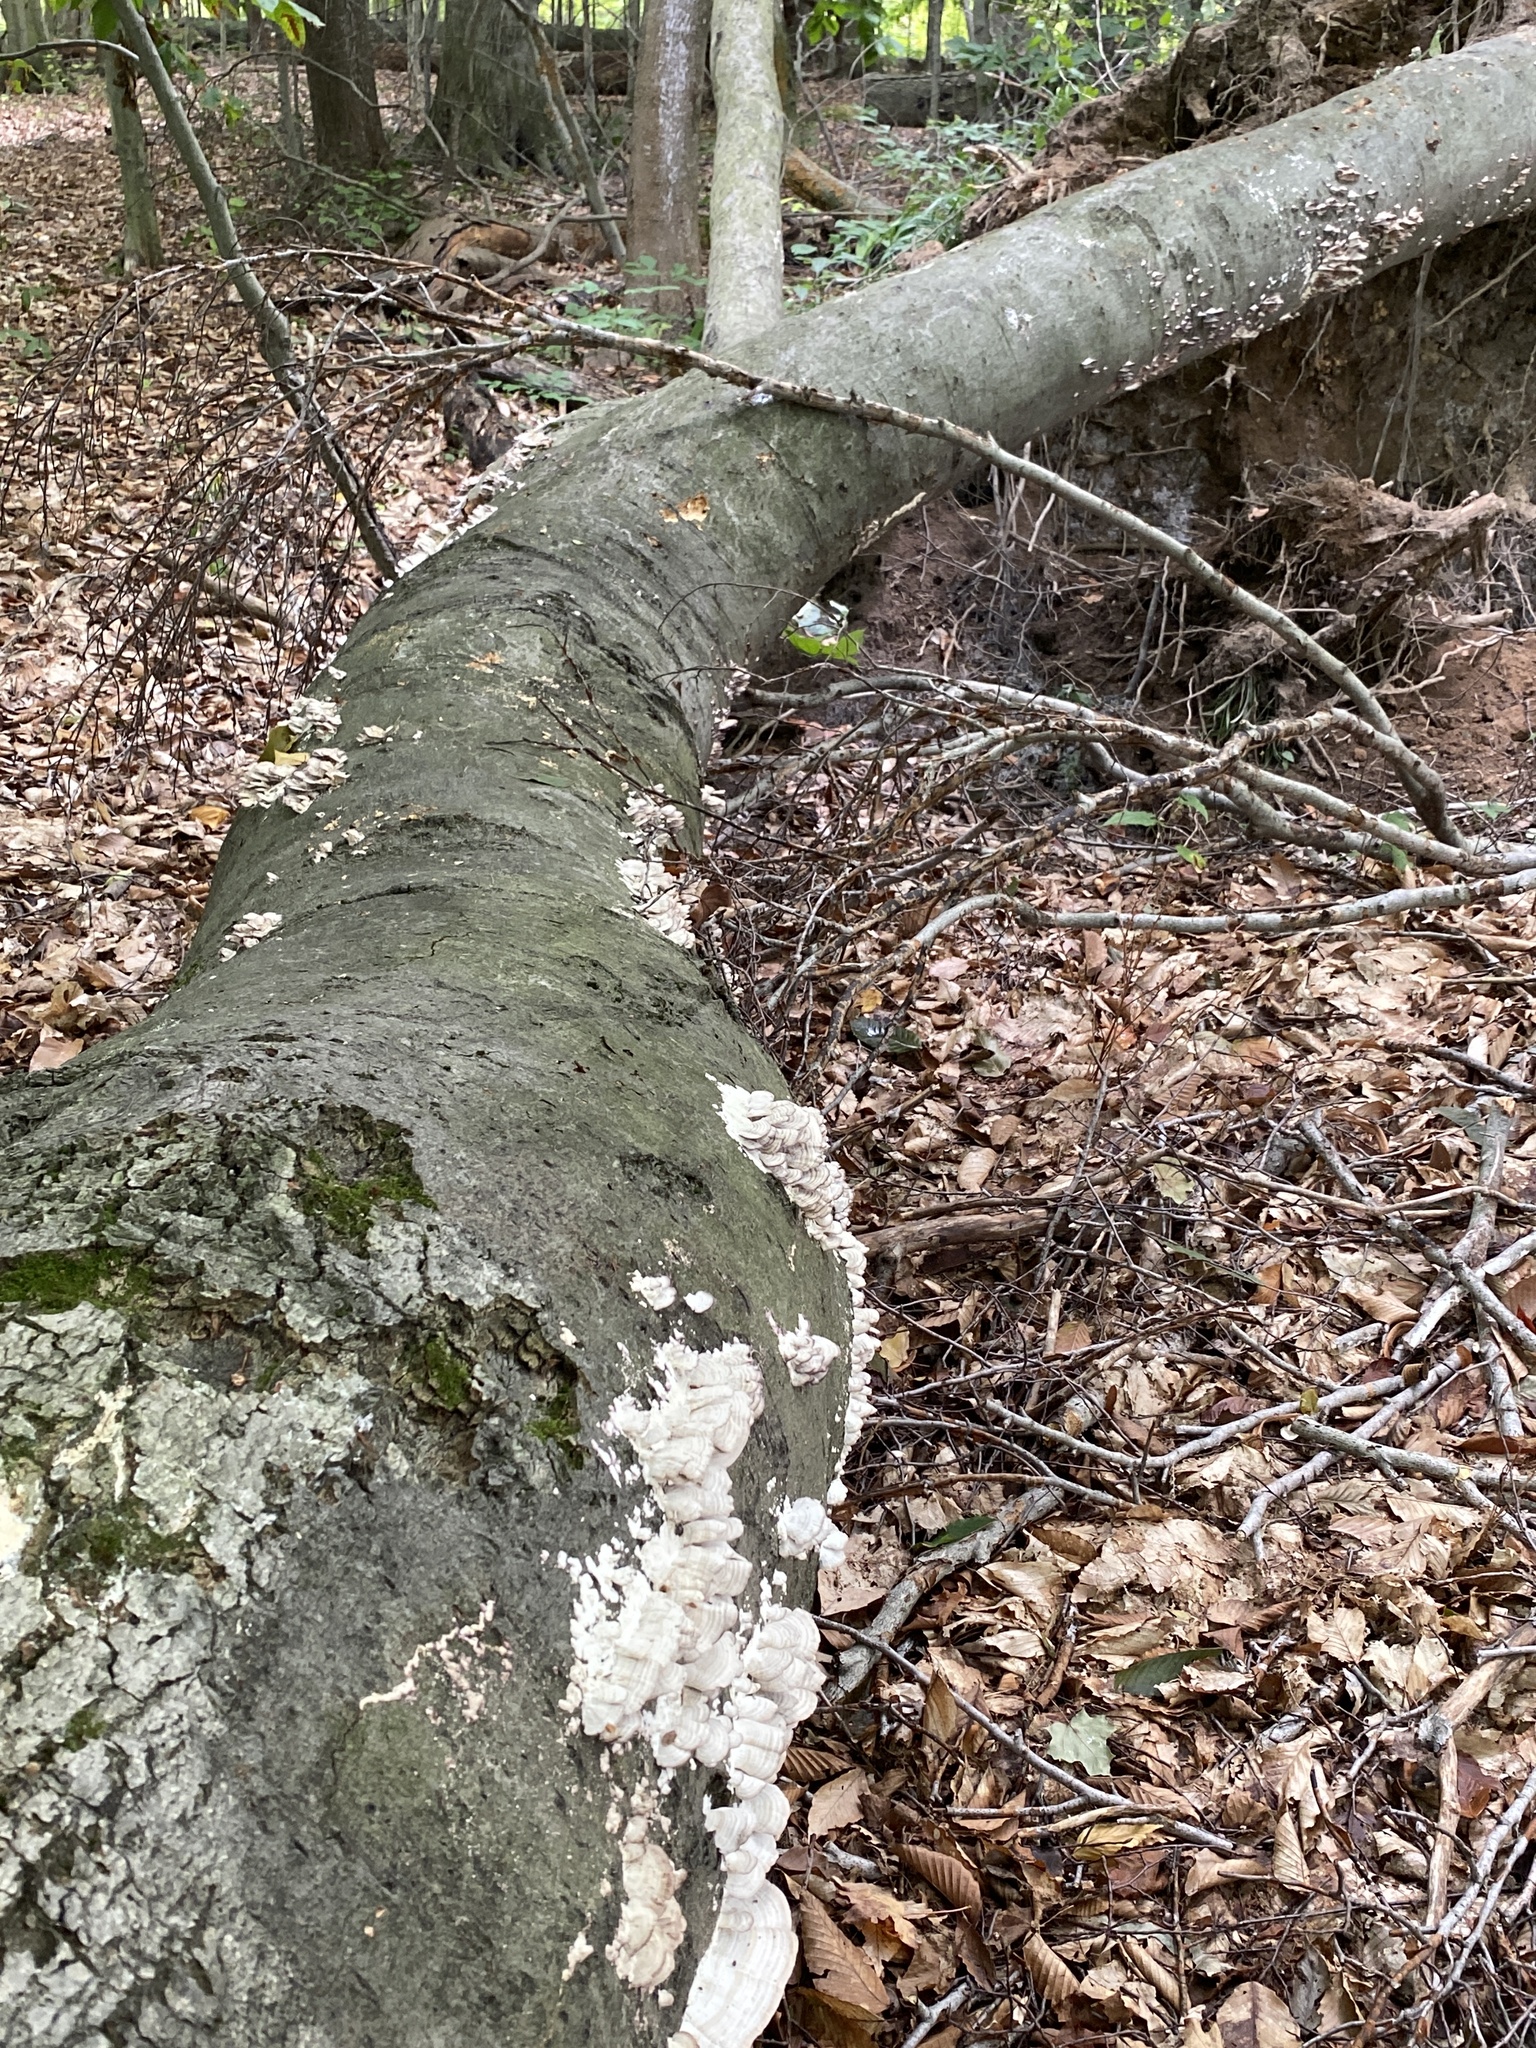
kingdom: Fungi
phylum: Basidiomycota
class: Agaricomycetes
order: Hymenochaetales
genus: Trichaptum
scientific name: Trichaptum biforme
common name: Violet-toothed polypore
